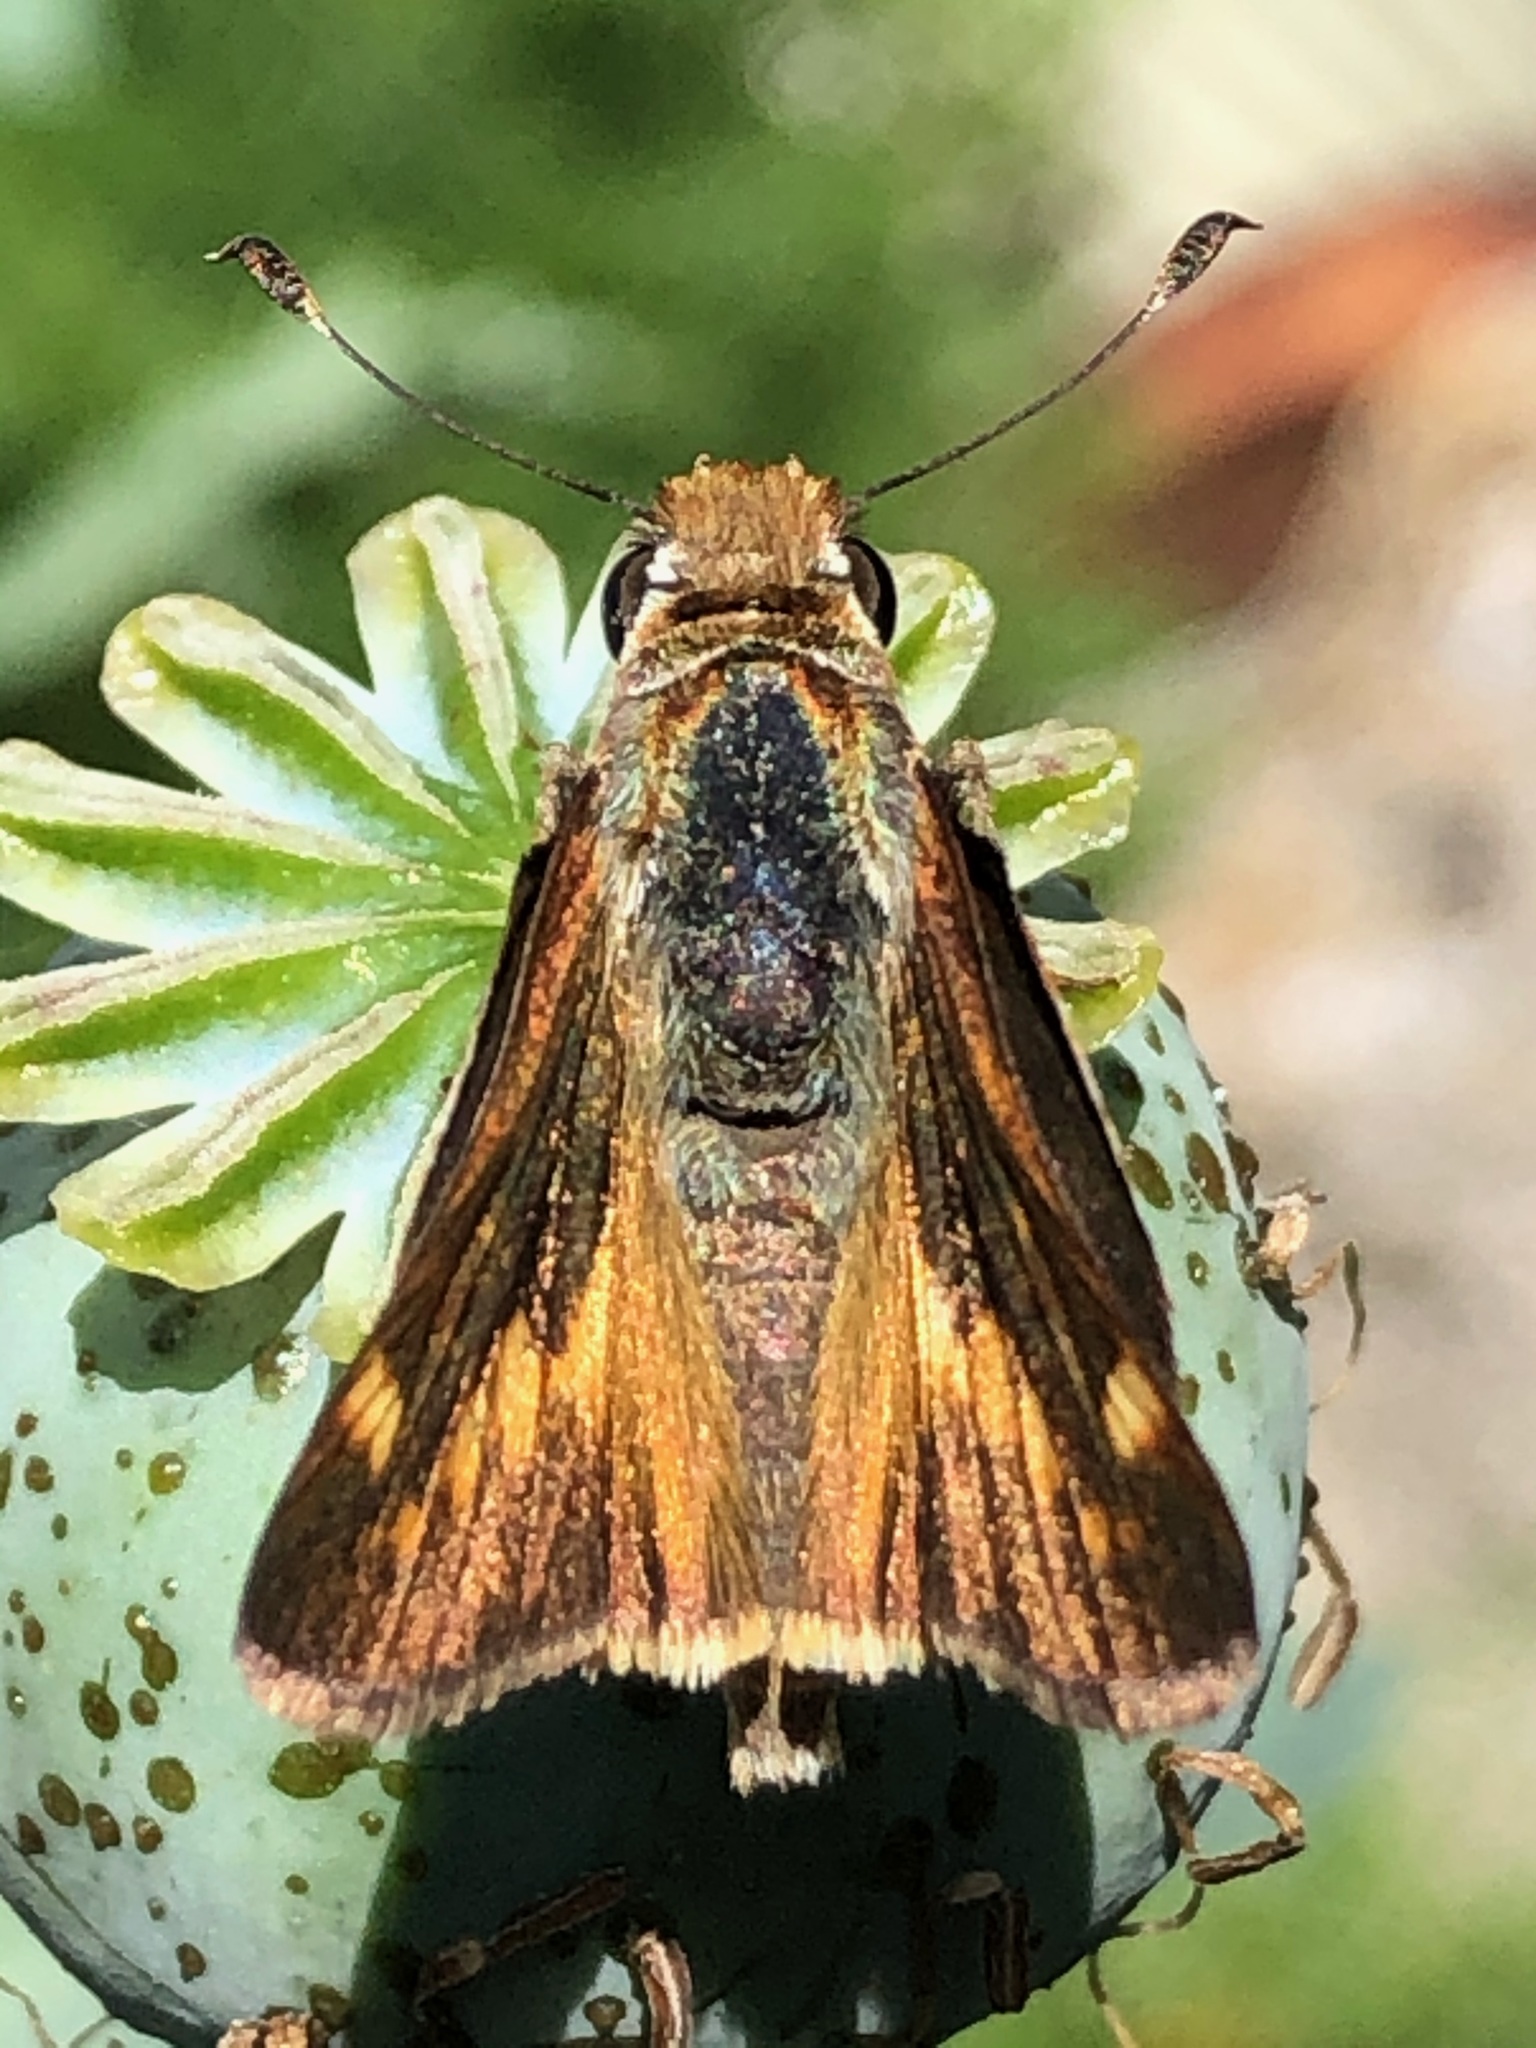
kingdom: Animalia
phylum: Arthropoda
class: Insecta
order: Lepidoptera
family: Hesperiidae
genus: Lon
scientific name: Lon melane
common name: Umber skipper
